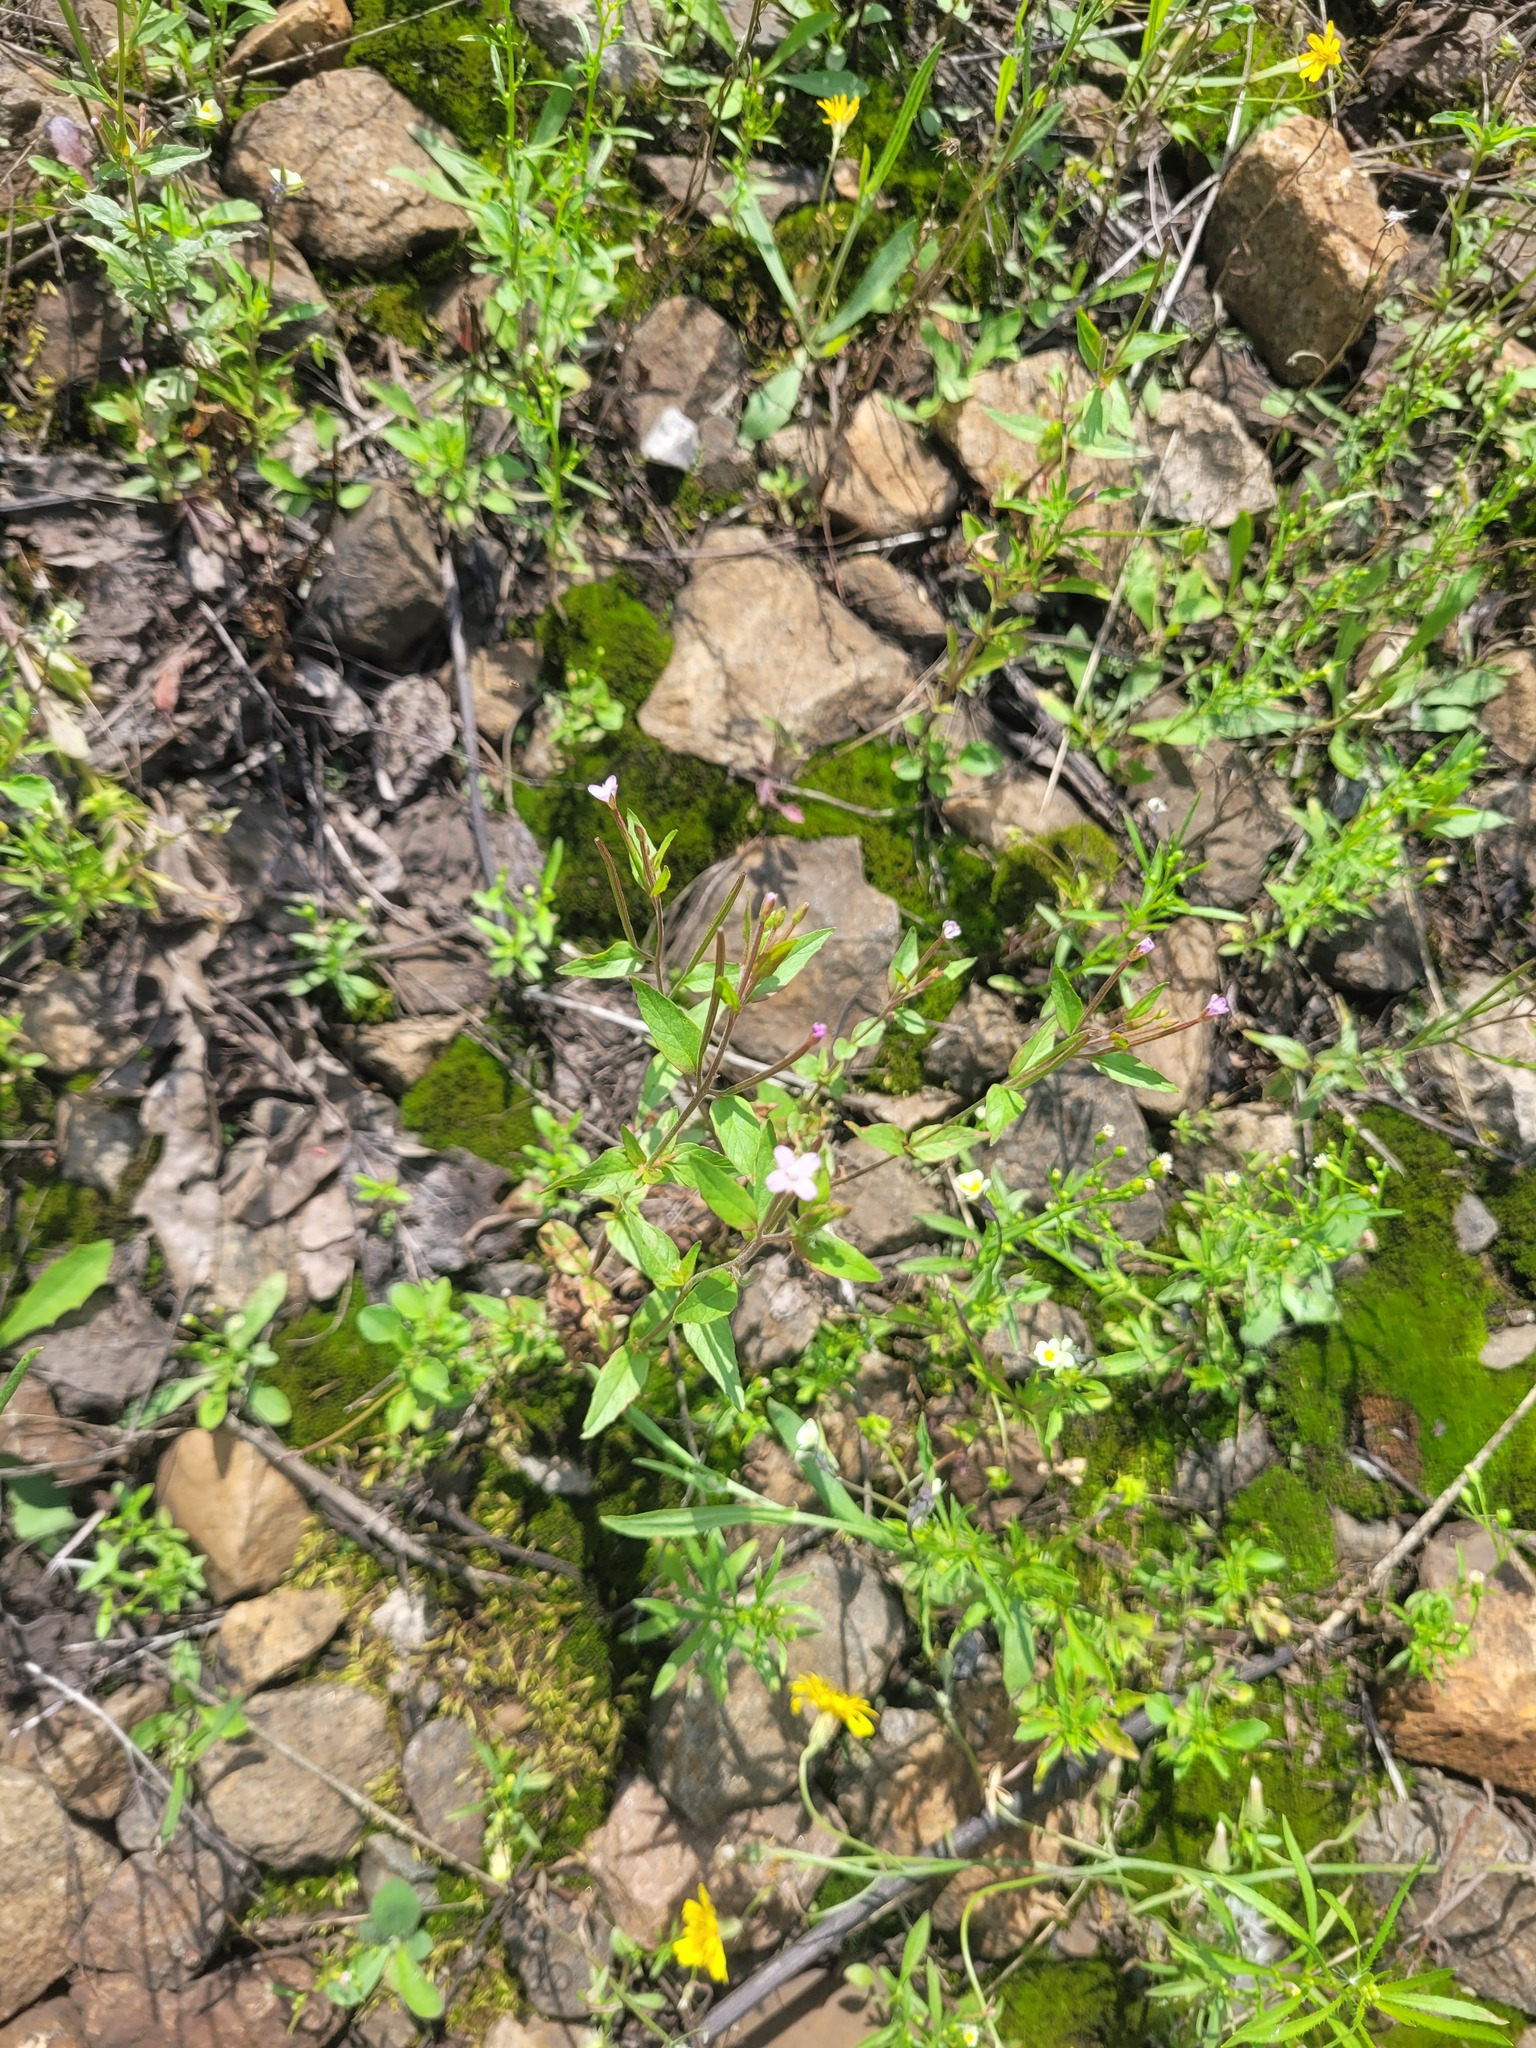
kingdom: Plantae
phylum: Tracheophyta
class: Magnoliopsida
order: Myrtales
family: Onagraceae
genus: Epilobium
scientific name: Epilobium ciliatum
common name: American willowherb
